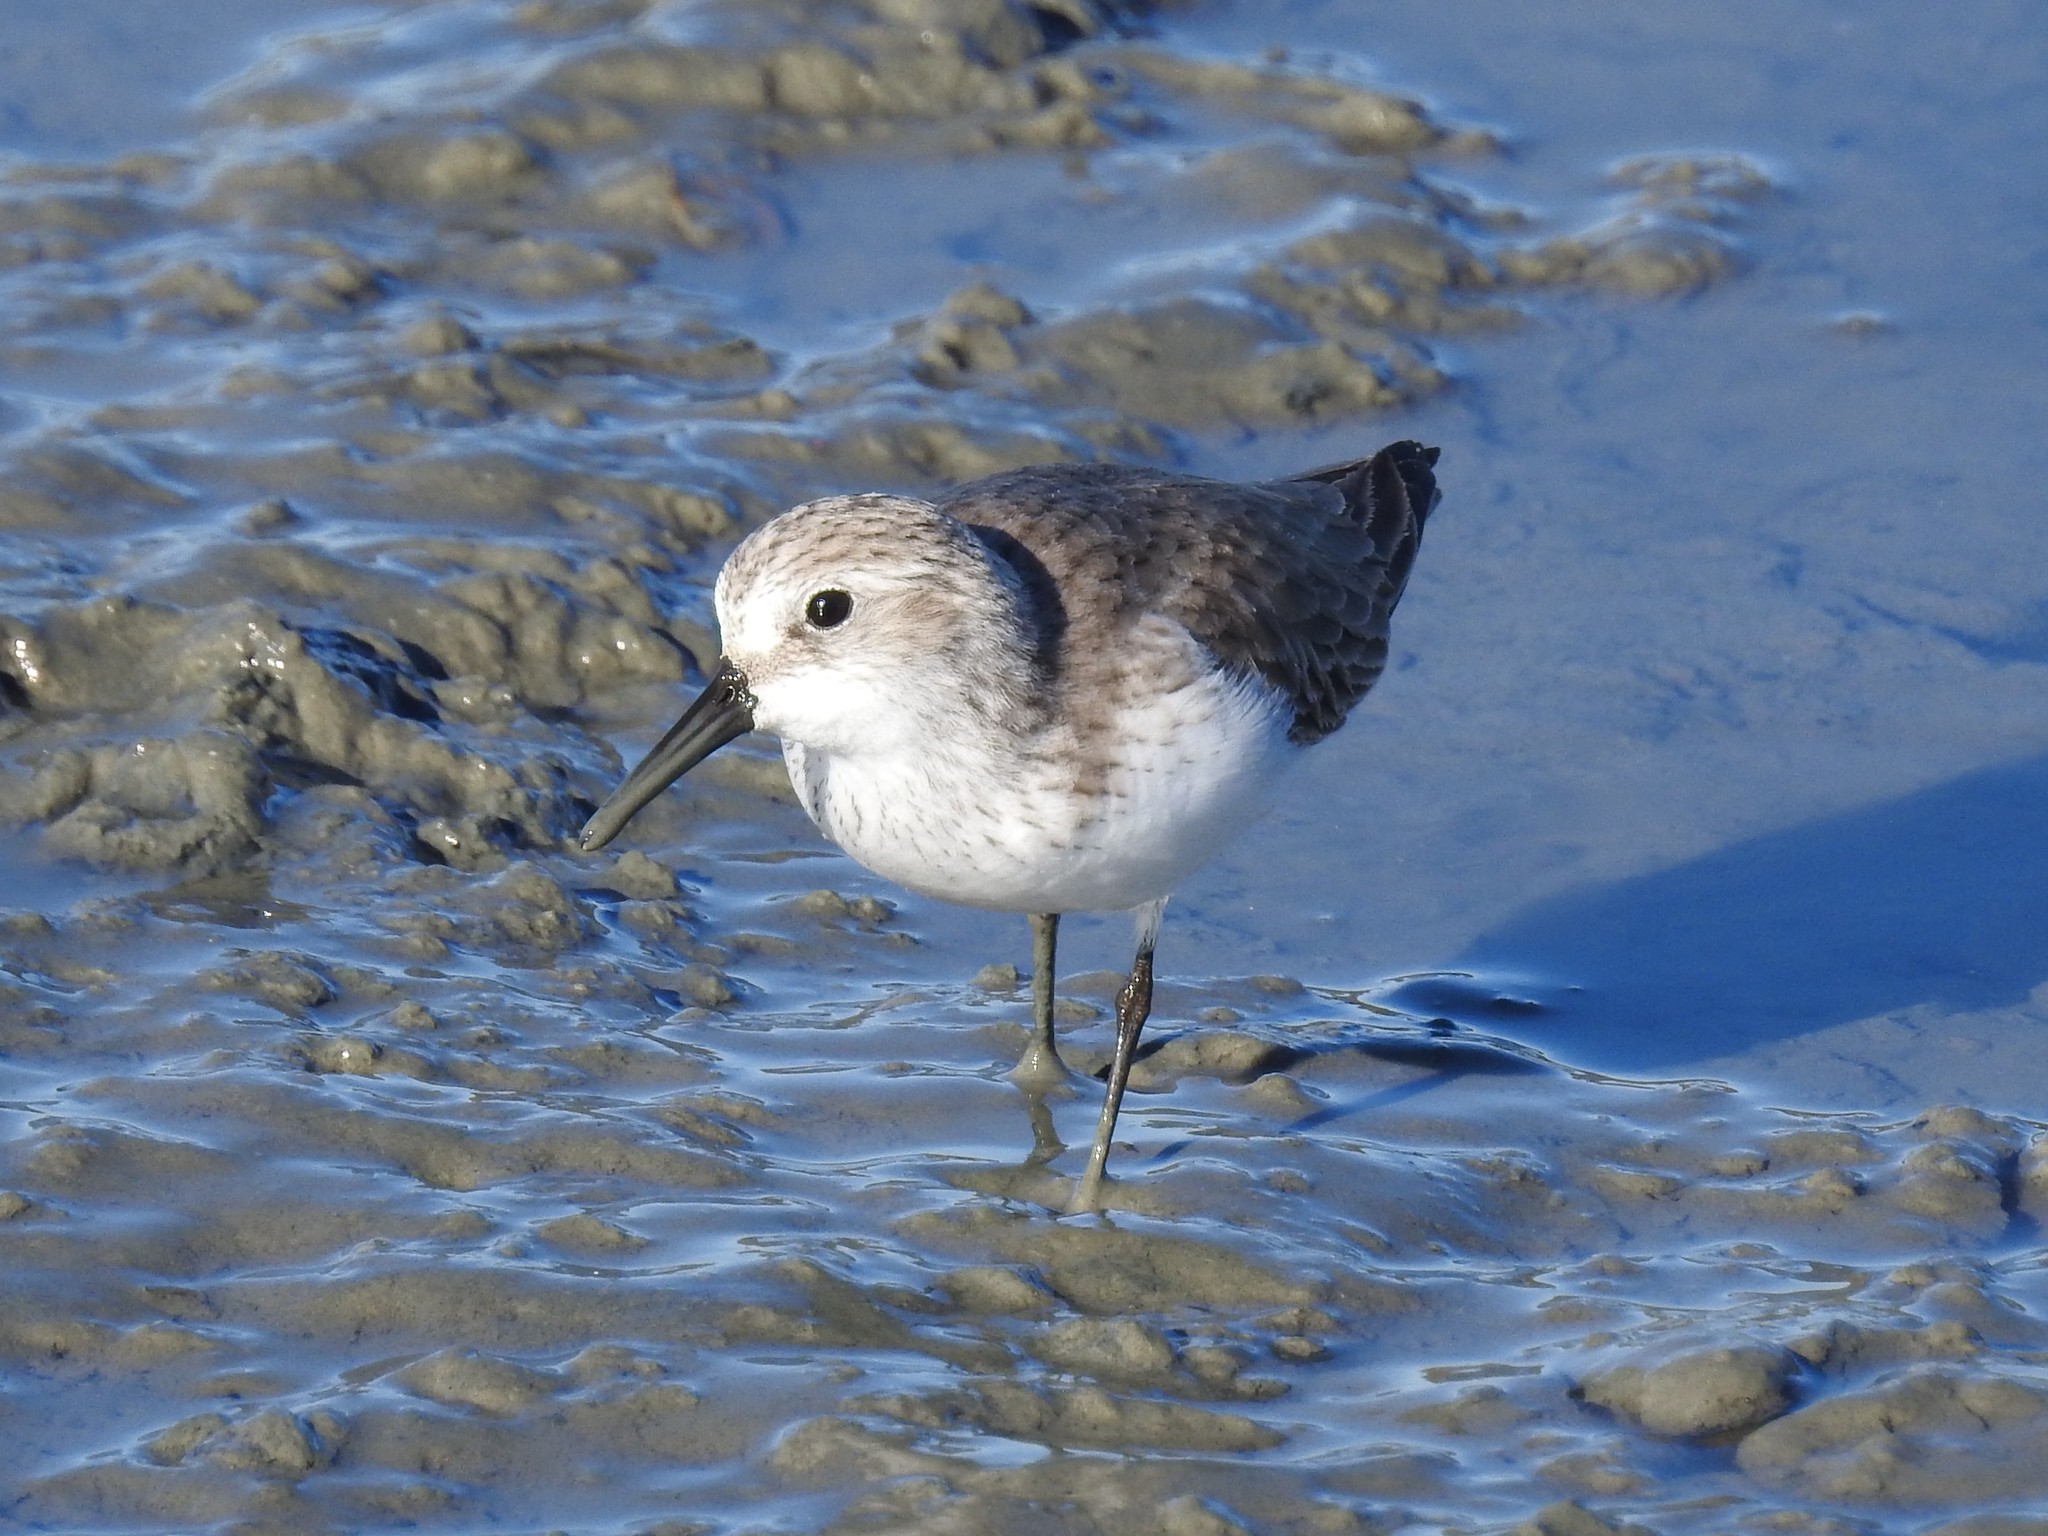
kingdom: Animalia
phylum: Chordata
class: Aves
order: Charadriiformes
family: Scolopacidae
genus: Calidris
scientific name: Calidris mauri
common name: Western sandpiper
